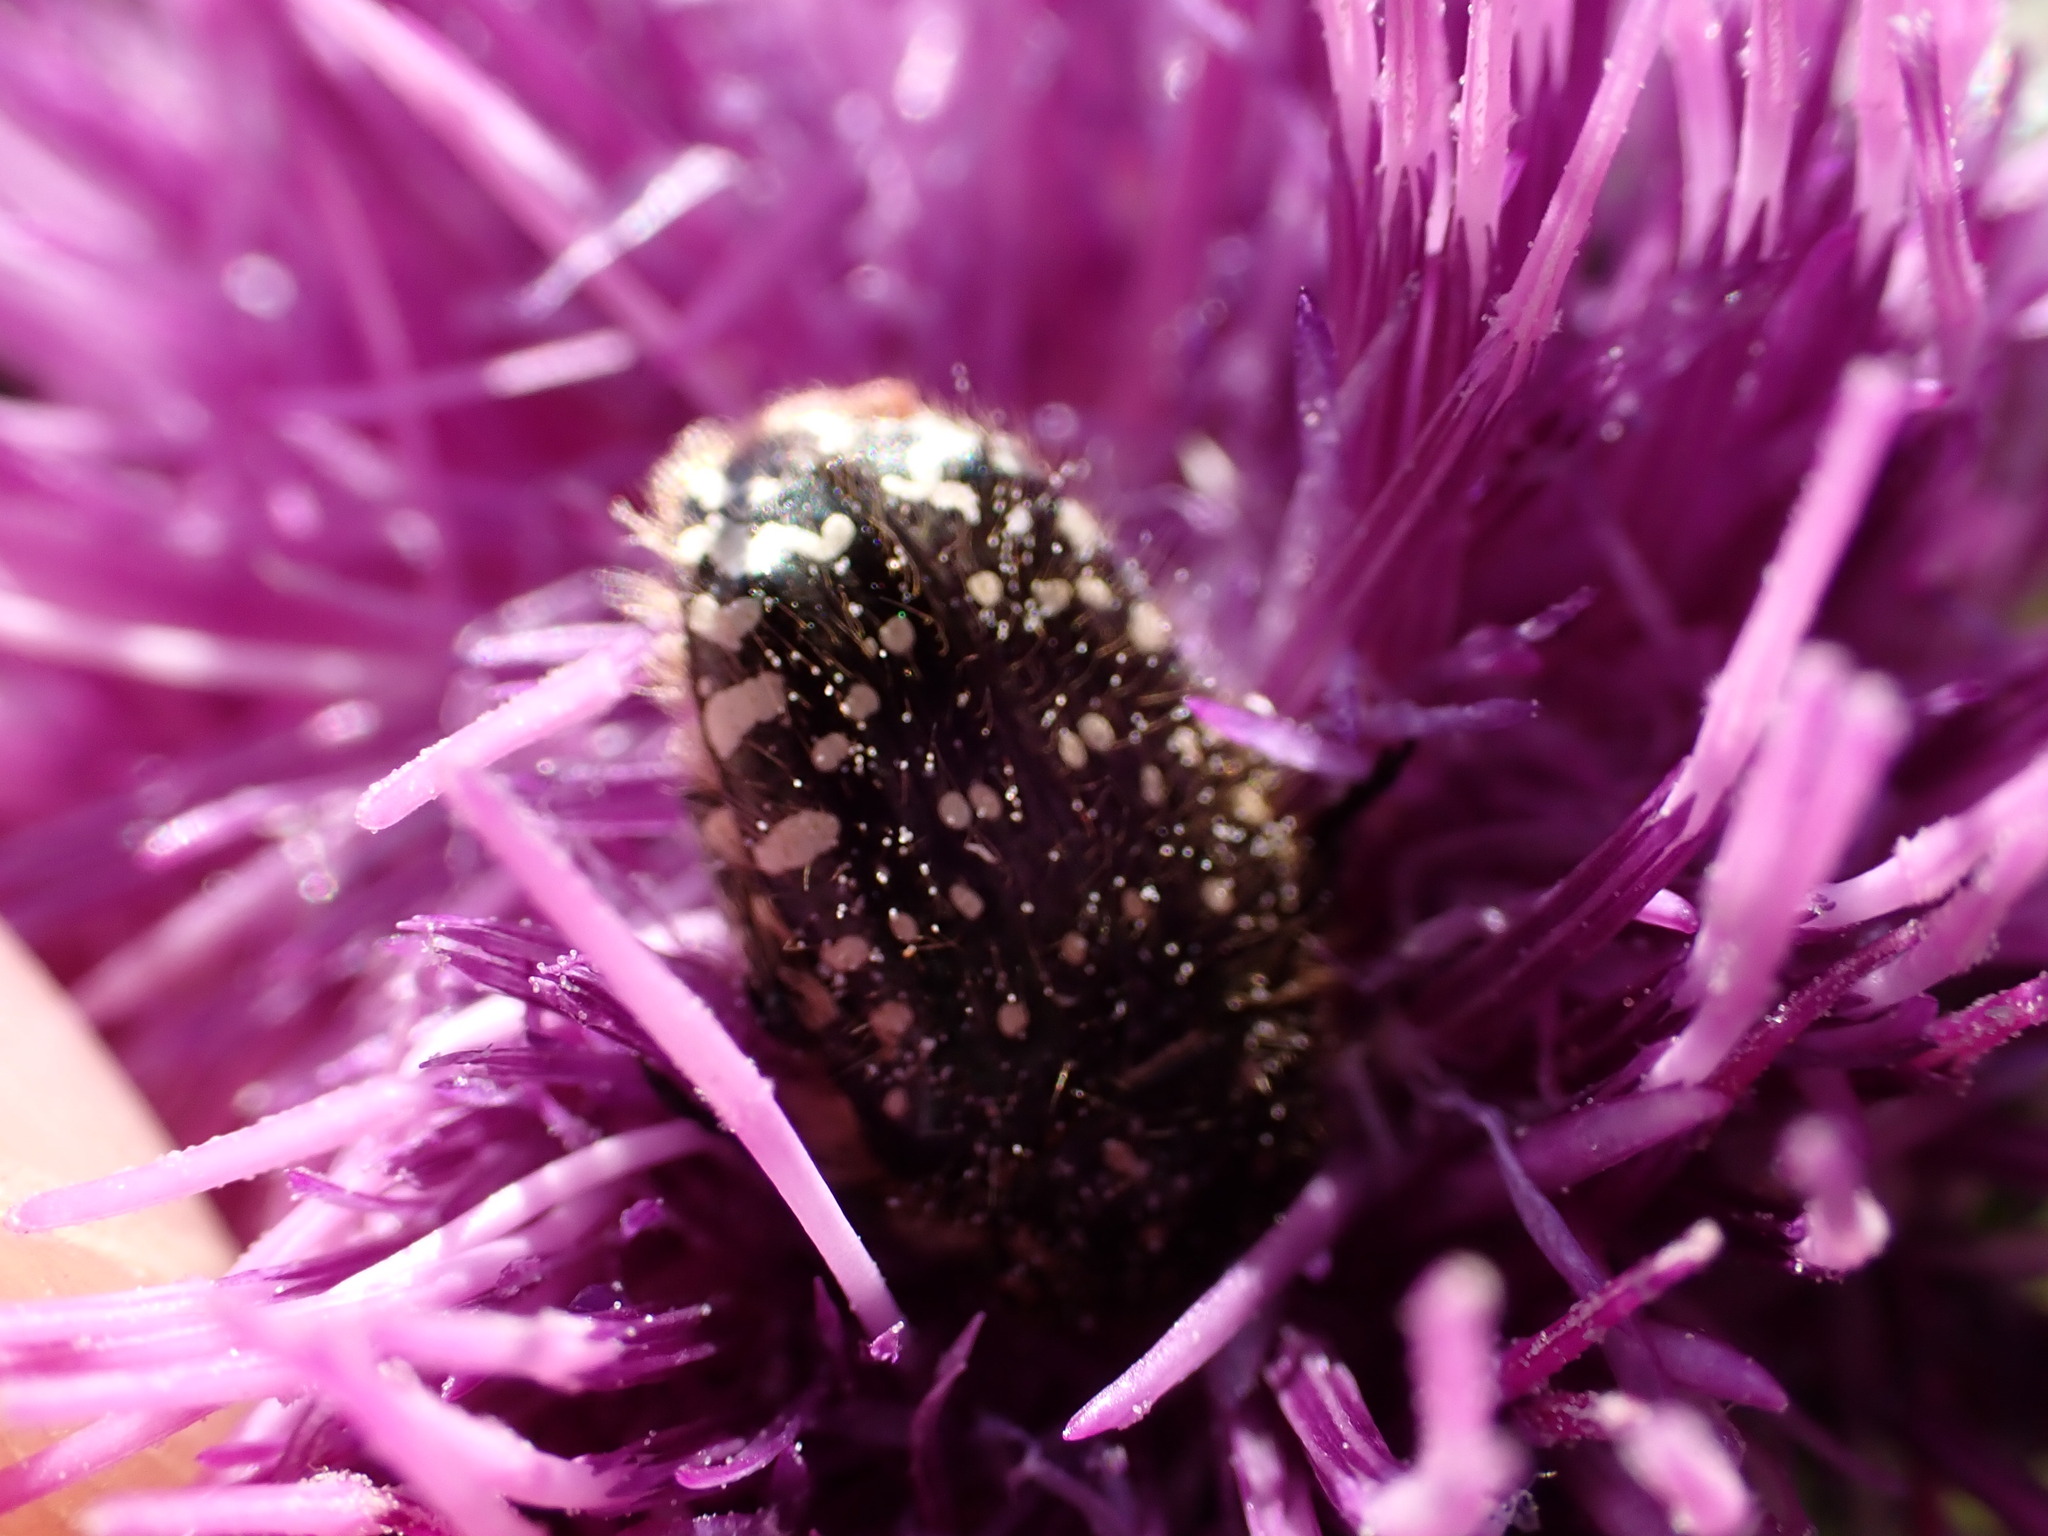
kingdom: Animalia
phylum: Arthropoda
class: Insecta
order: Coleoptera
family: Scarabaeidae
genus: Oxythyrea
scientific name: Oxythyrea funesta
